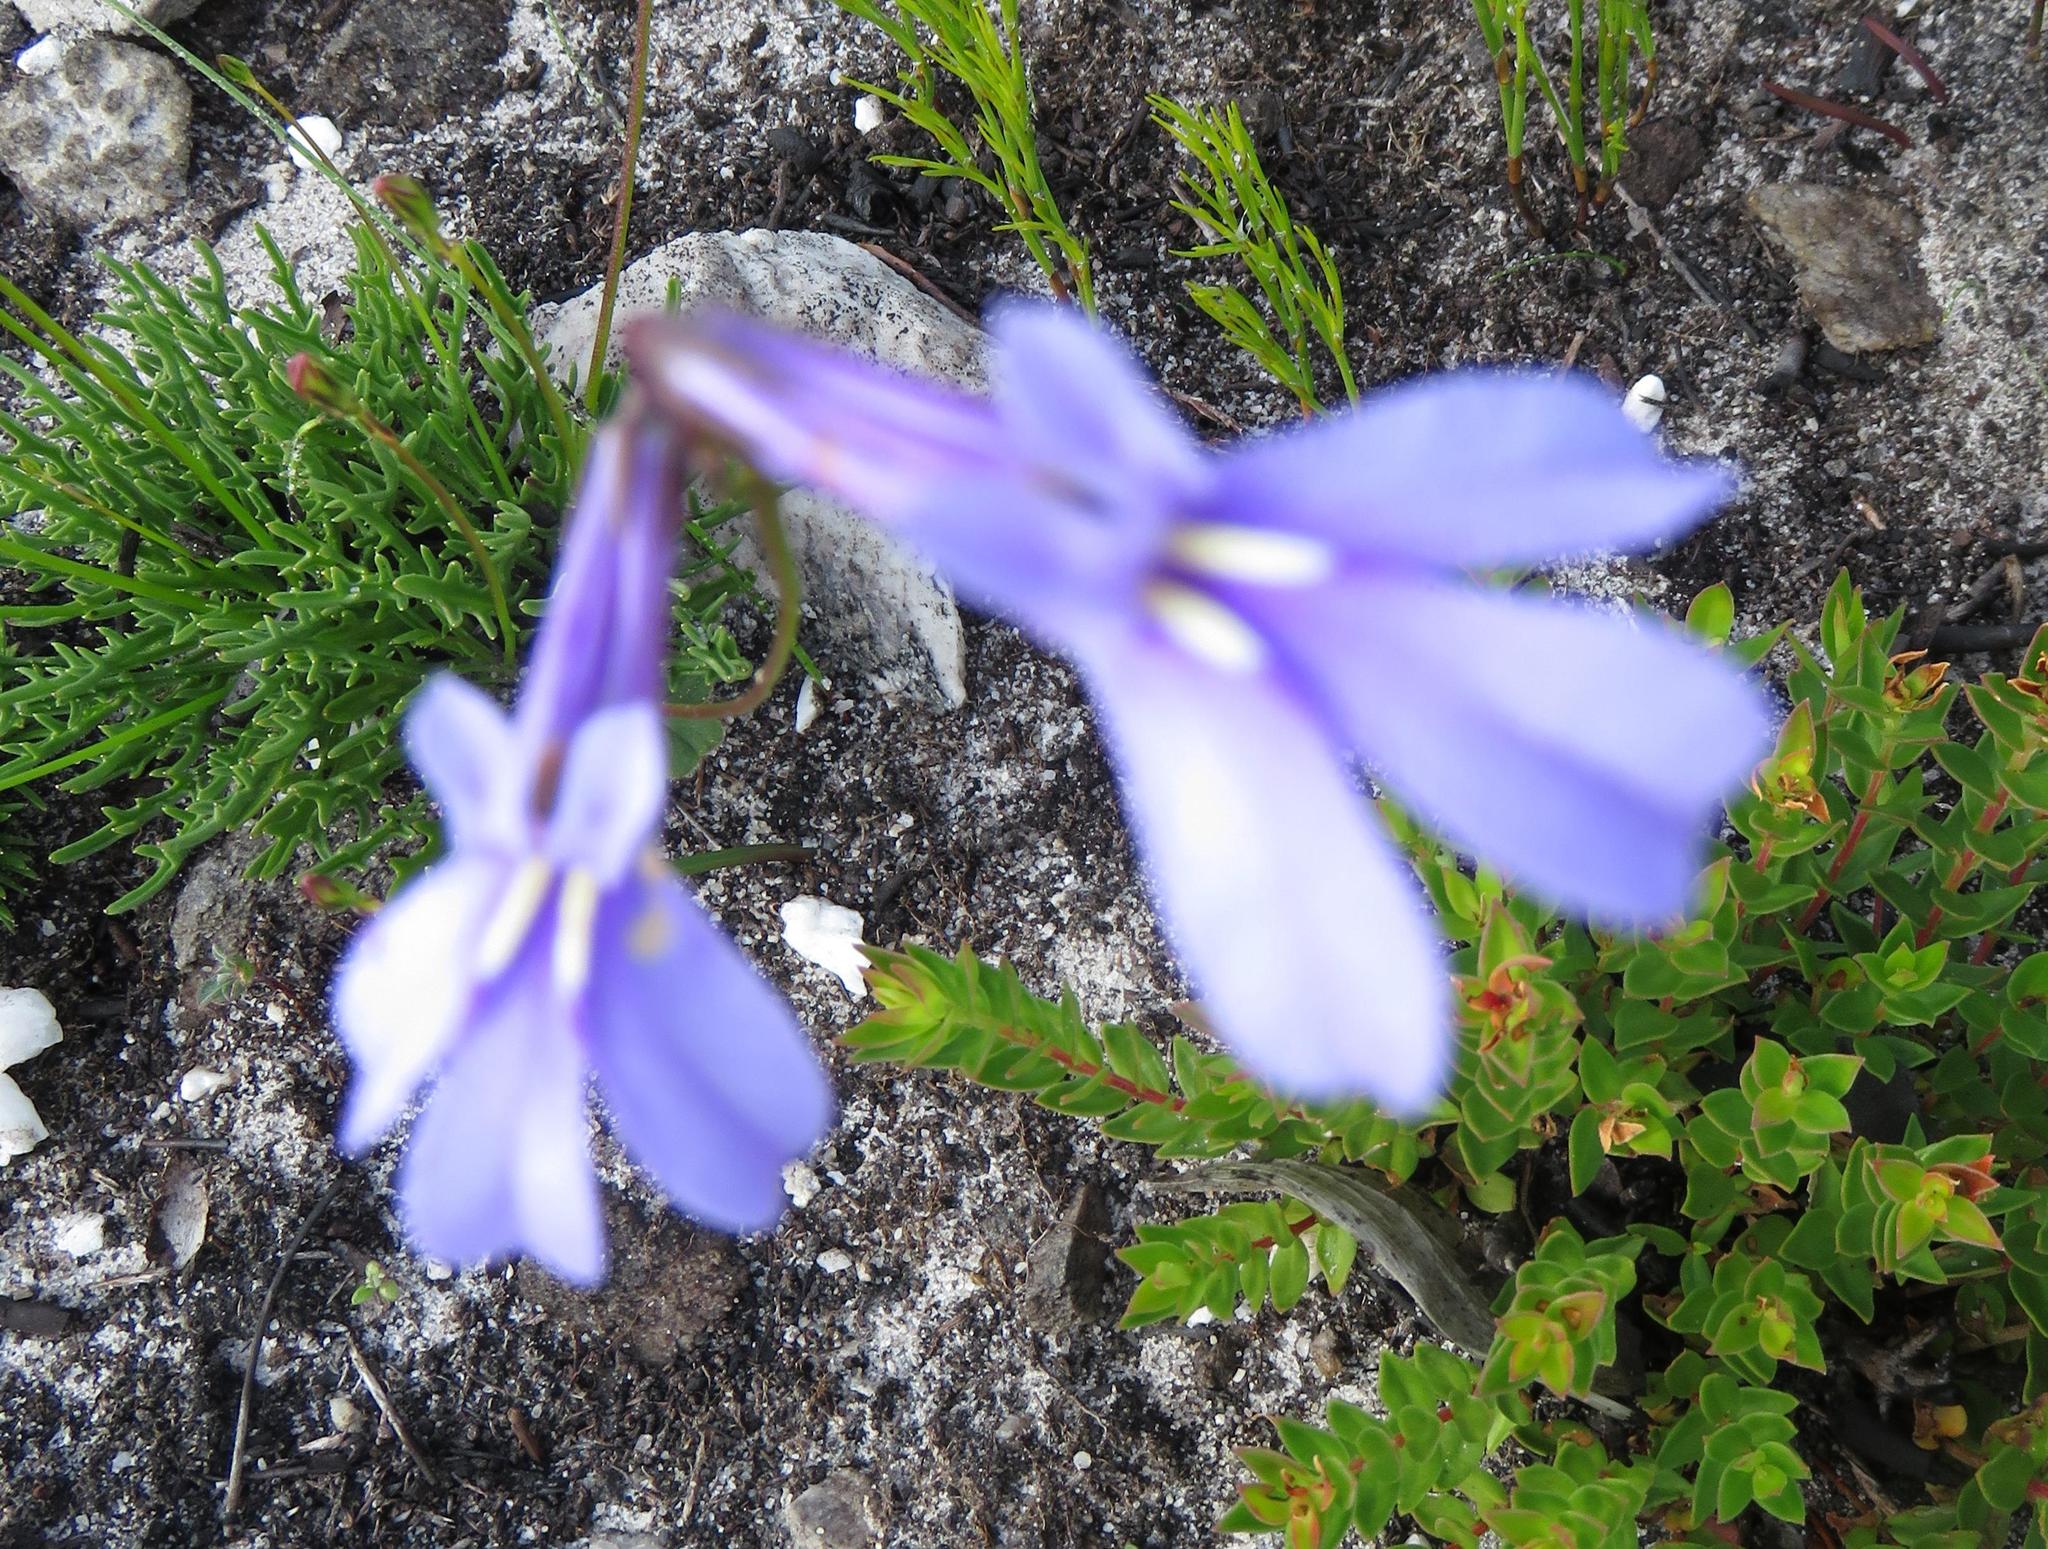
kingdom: Plantae
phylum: Tracheophyta
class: Magnoliopsida
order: Asterales
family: Campanulaceae
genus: Lobelia
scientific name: Lobelia coronopifolia
